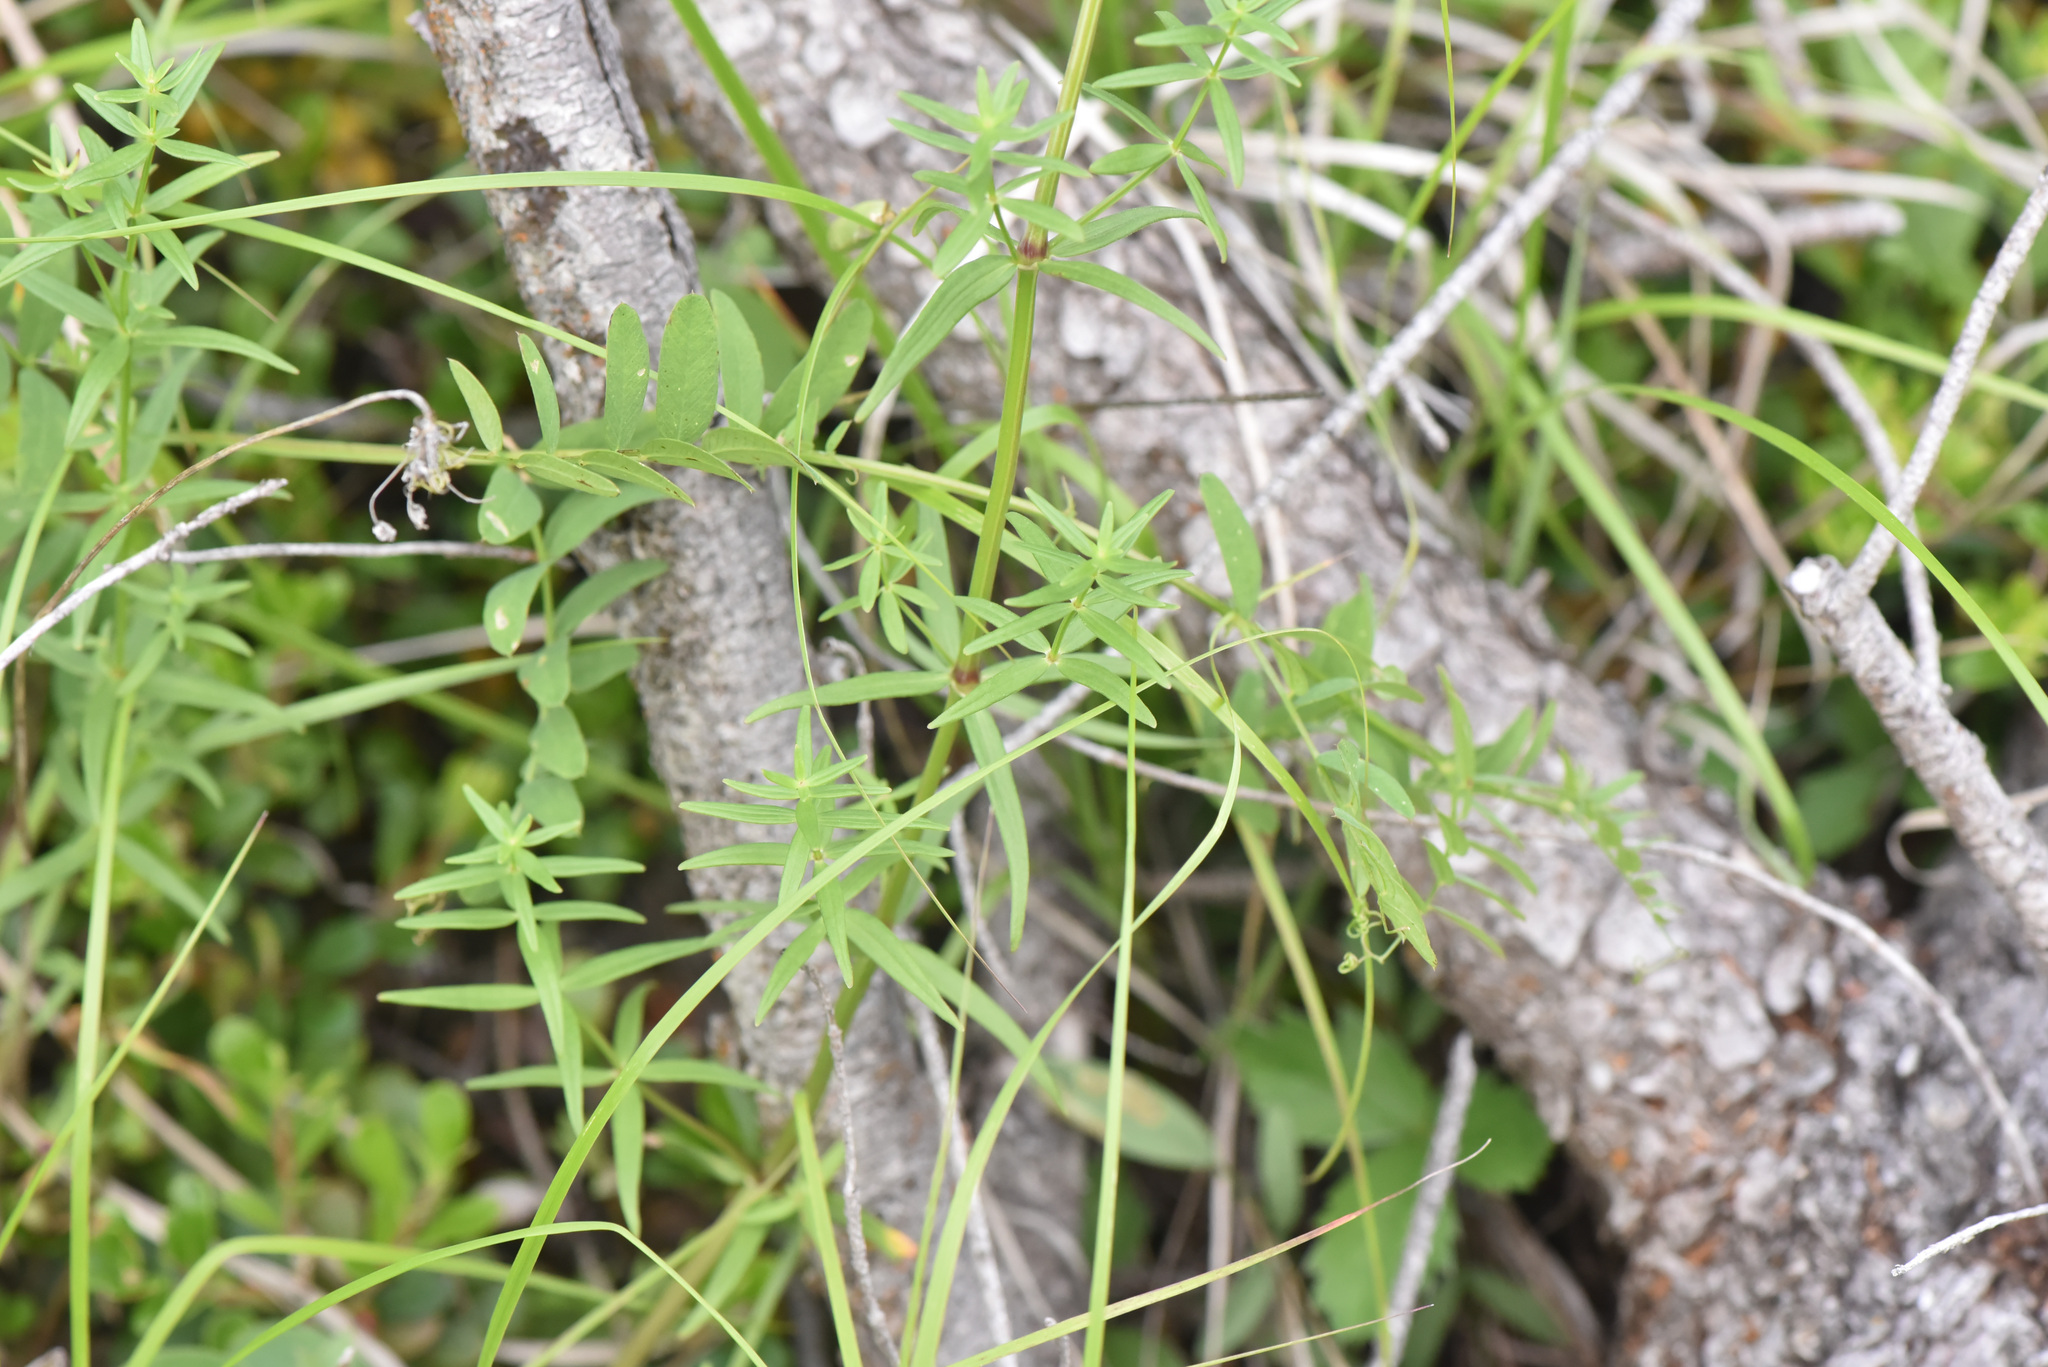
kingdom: Plantae
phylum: Tracheophyta
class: Magnoliopsida
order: Gentianales
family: Rubiaceae
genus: Galium
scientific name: Galium boreale
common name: Northern bedstraw
